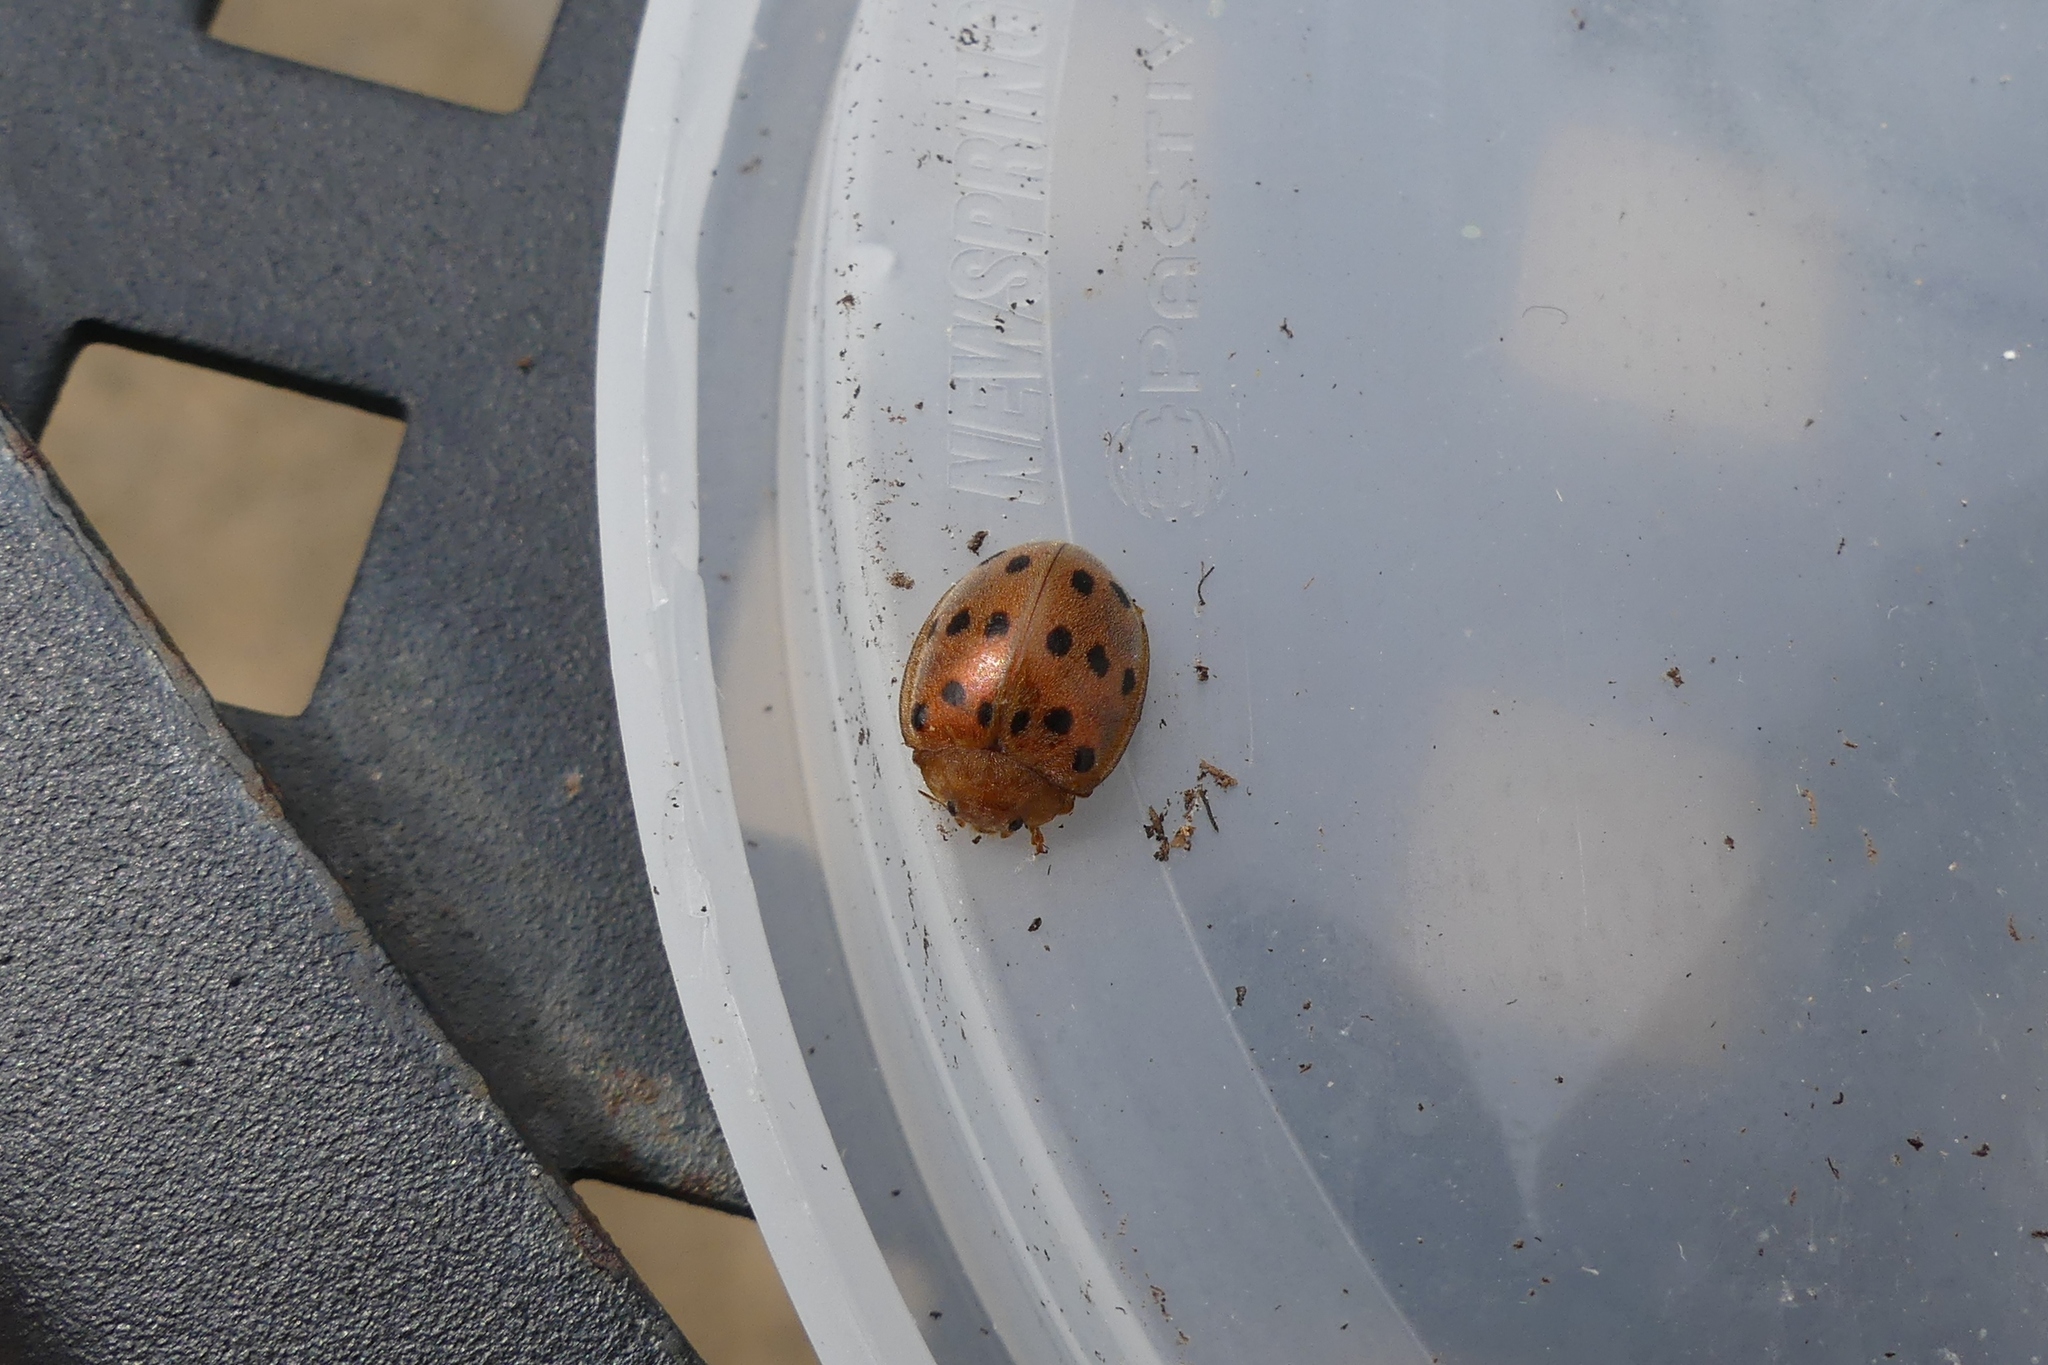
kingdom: Animalia
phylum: Arthropoda
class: Insecta
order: Coleoptera
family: Coccinellidae
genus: Epilachna
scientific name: Epilachna varivestis
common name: Ladybird beetle
